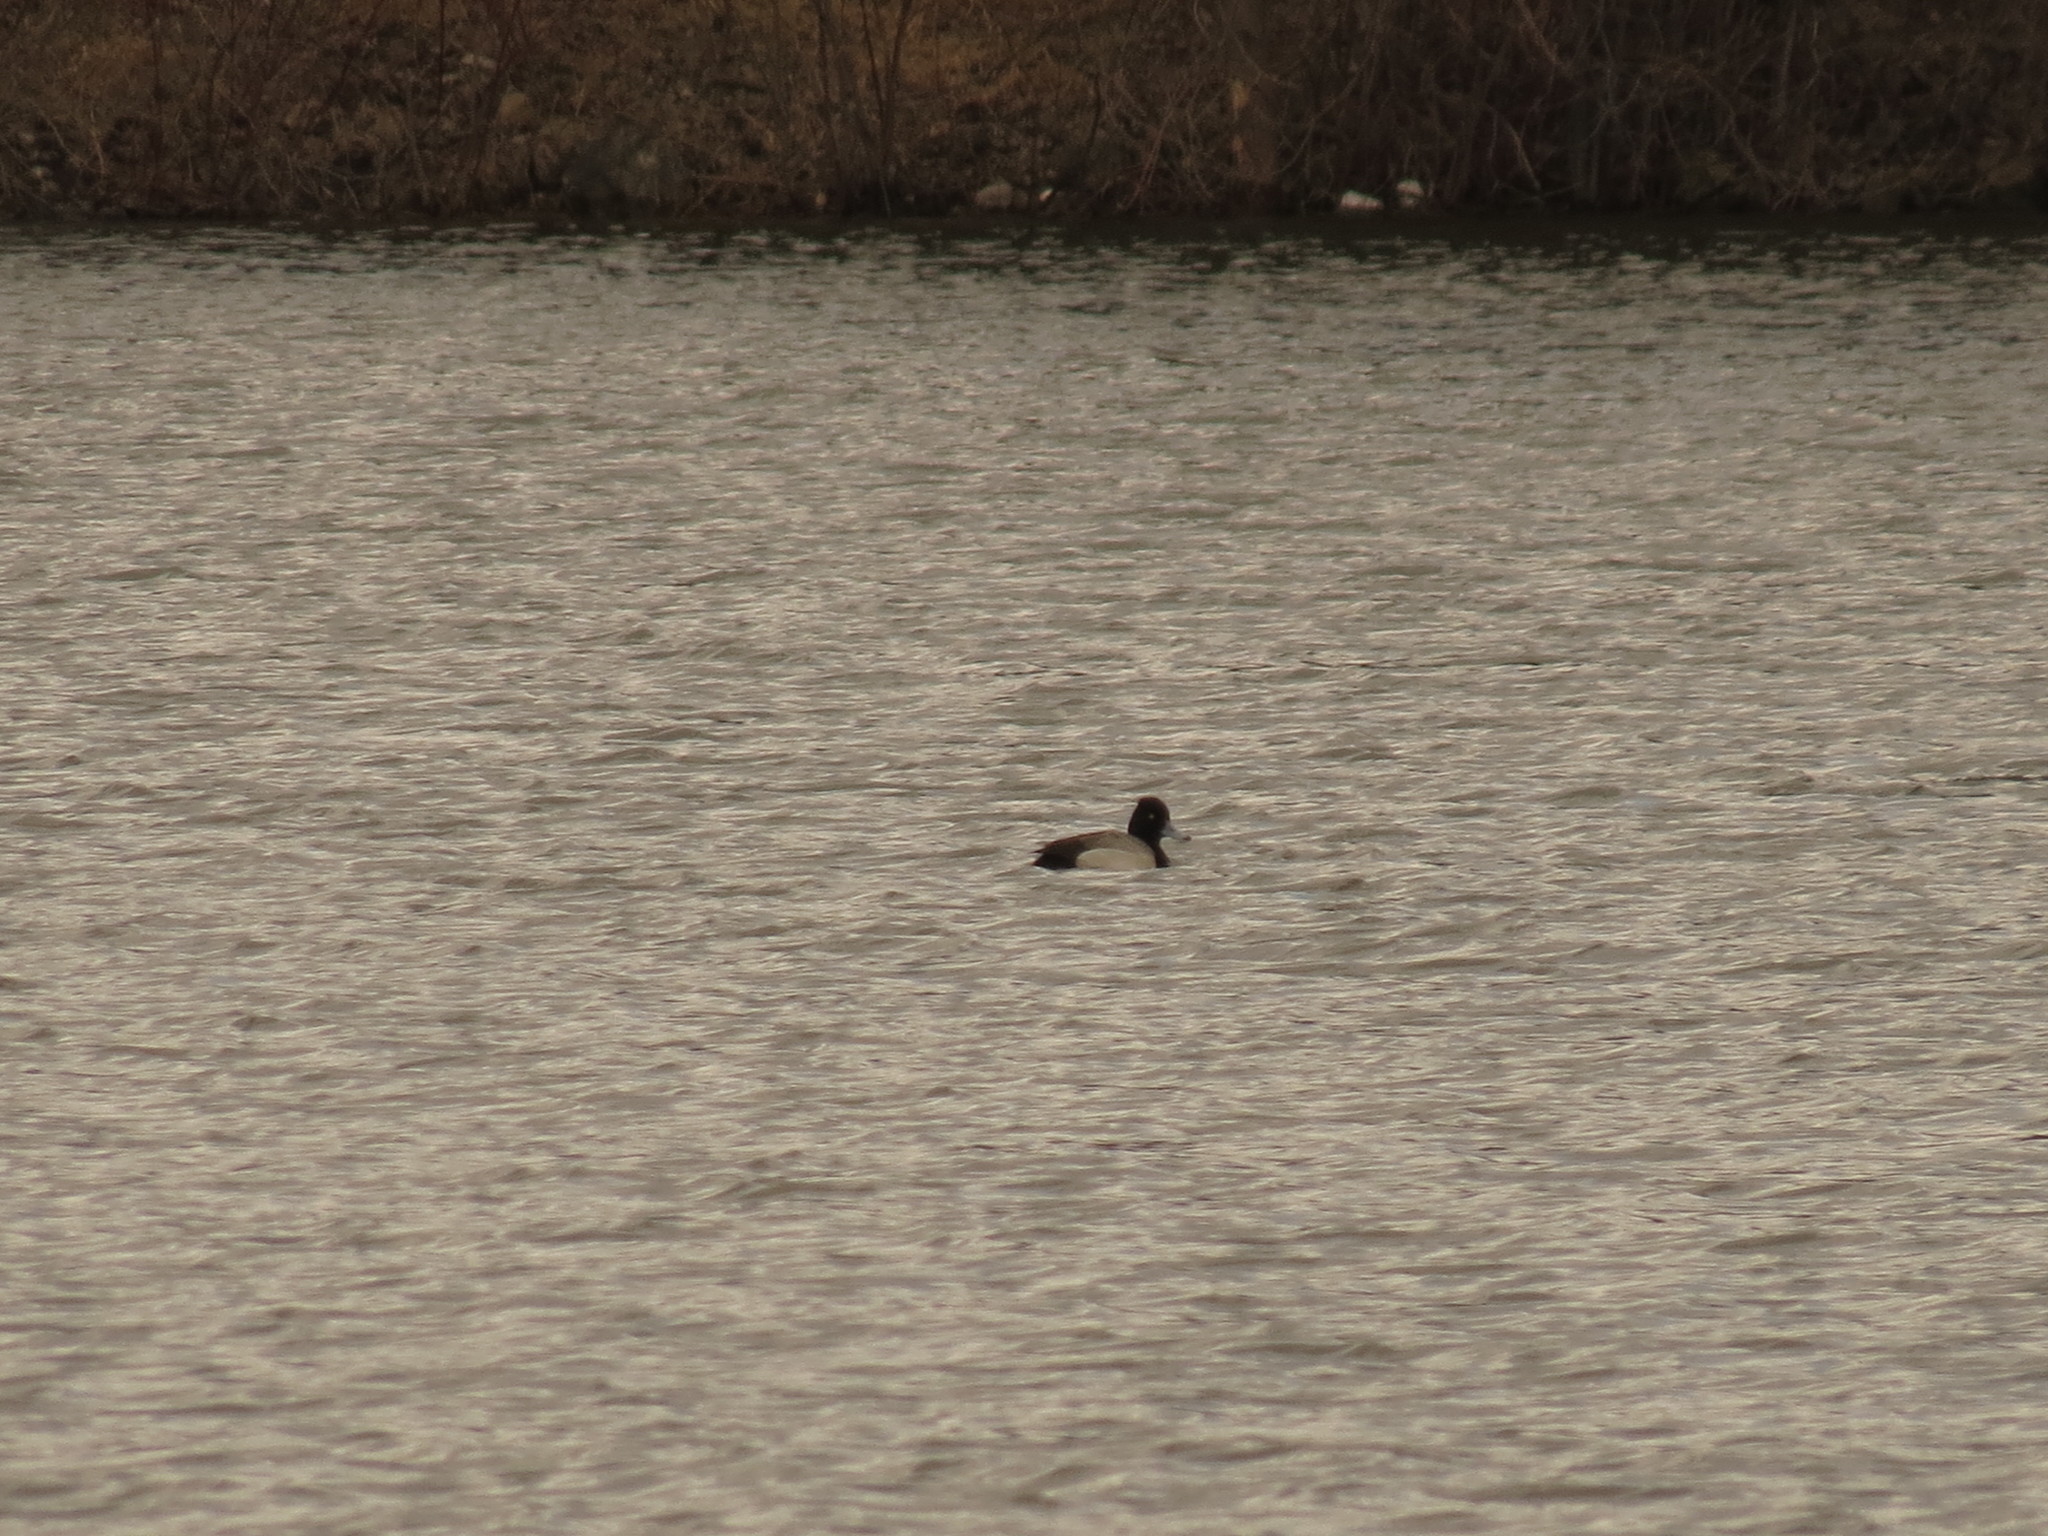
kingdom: Animalia
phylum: Chordata
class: Aves
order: Anseriformes
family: Anatidae
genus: Aythya
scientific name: Aythya affinis
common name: Lesser scaup
